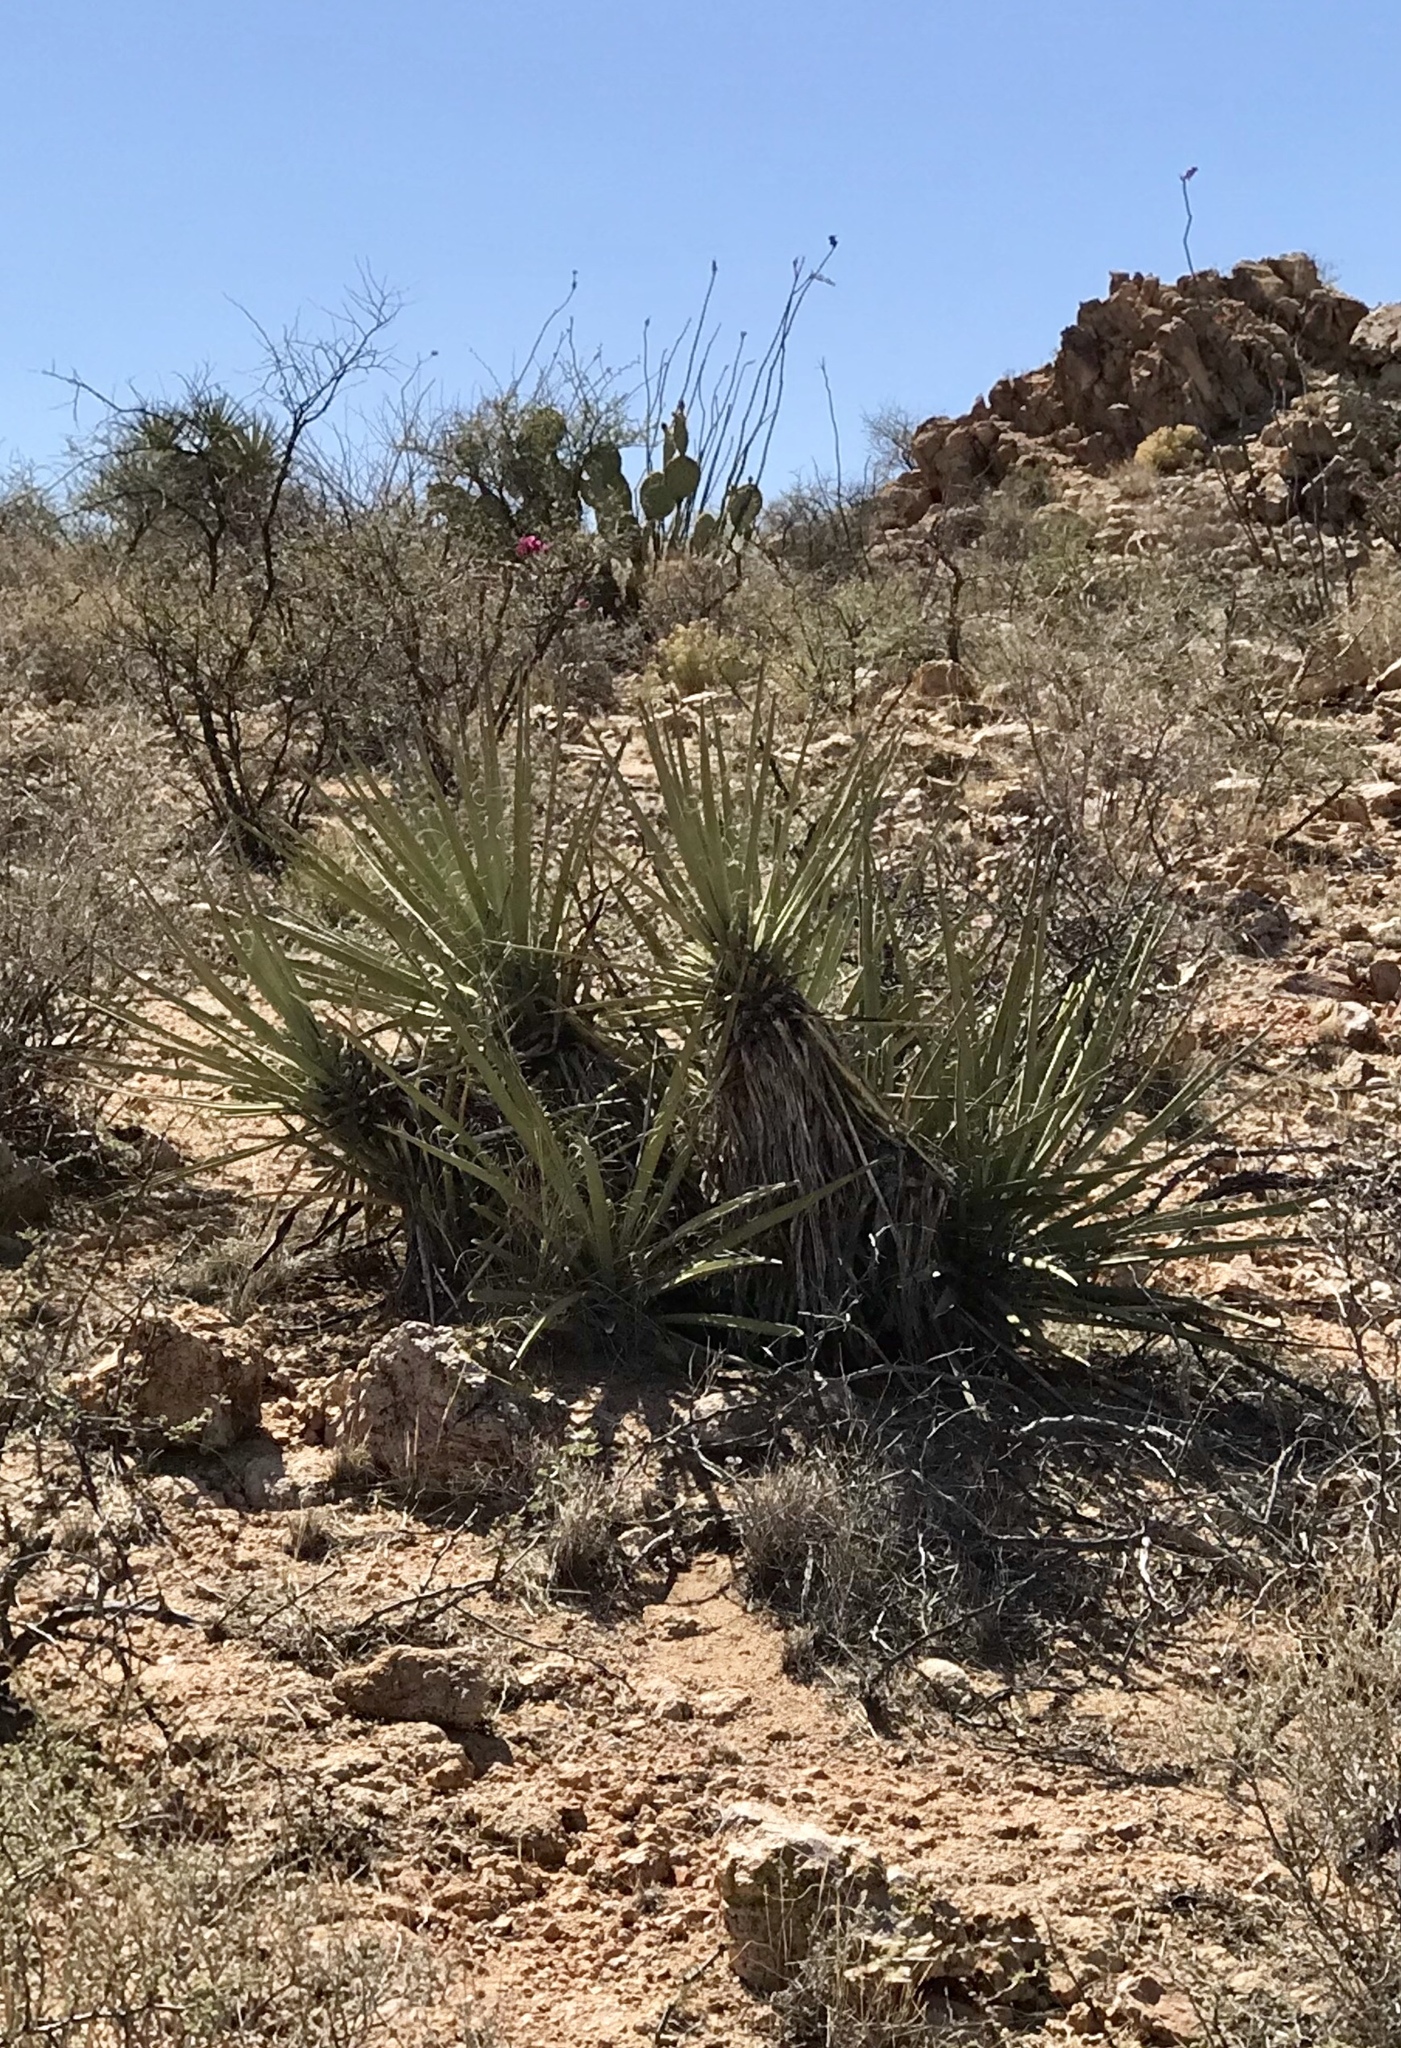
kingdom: Plantae
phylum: Tracheophyta
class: Liliopsida
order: Asparagales
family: Asparagaceae
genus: Yucca
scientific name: Yucca baccata
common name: Banana yucca
